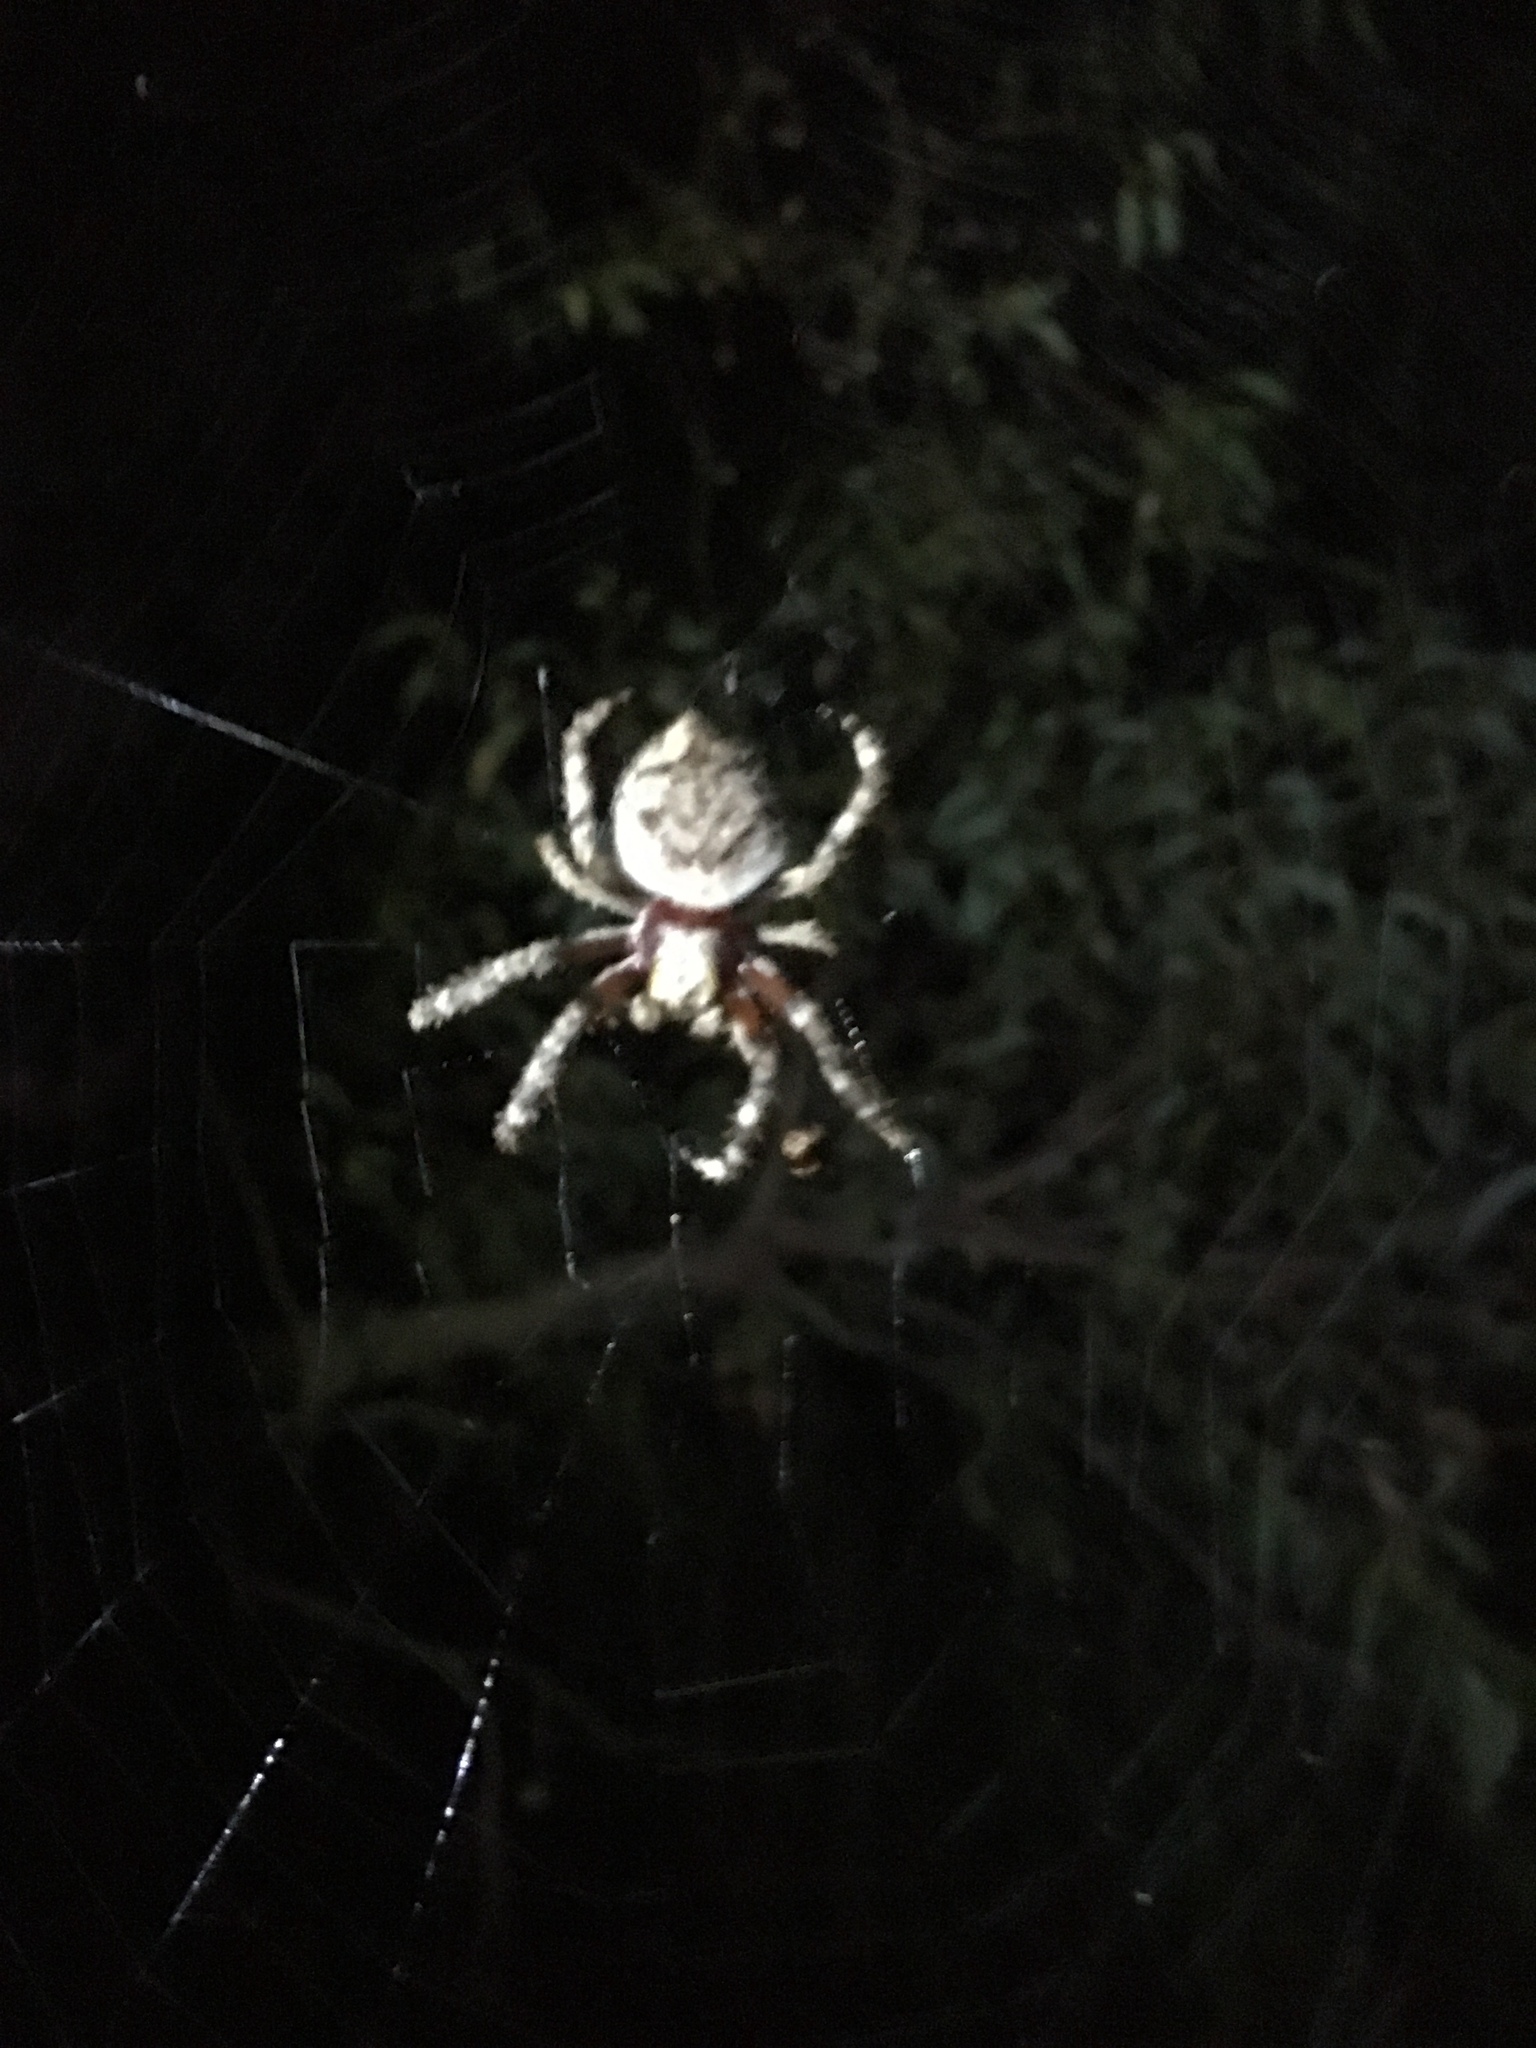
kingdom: Animalia
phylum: Arthropoda
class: Arachnida
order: Araneae
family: Araneidae
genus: Hortophora
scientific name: Hortophora biapicata
